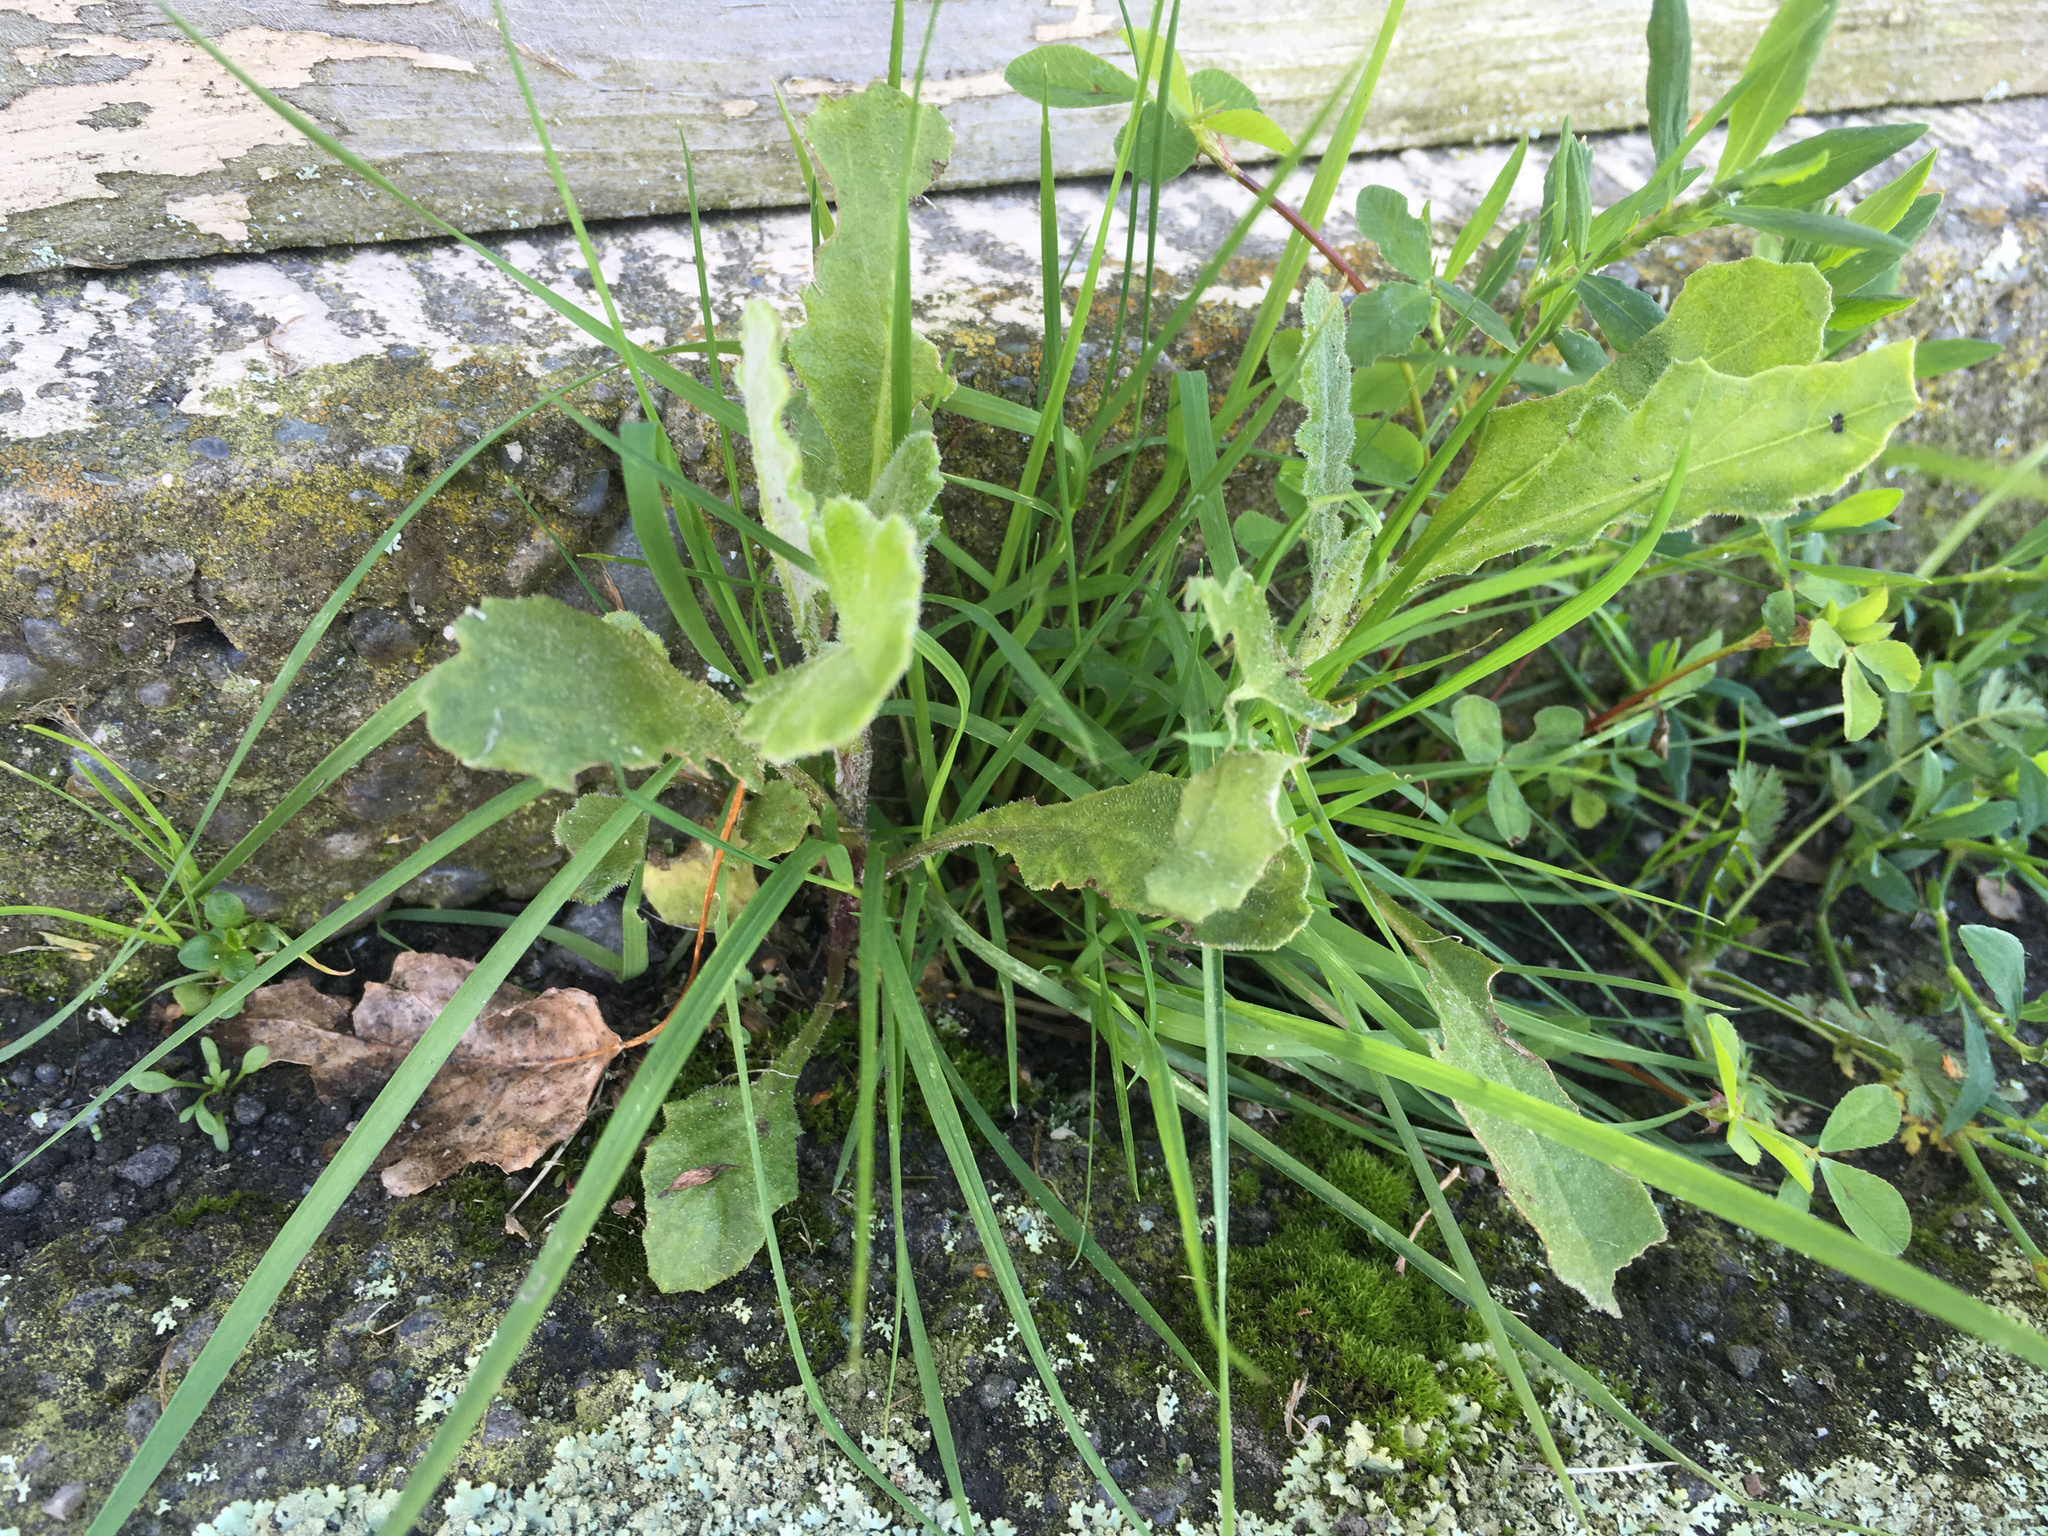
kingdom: Plantae
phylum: Tracheophyta
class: Magnoliopsida
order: Asterales
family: Asteraceae
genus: Senecio
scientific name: Senecio glomeratus
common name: Cutleaf burnweed
